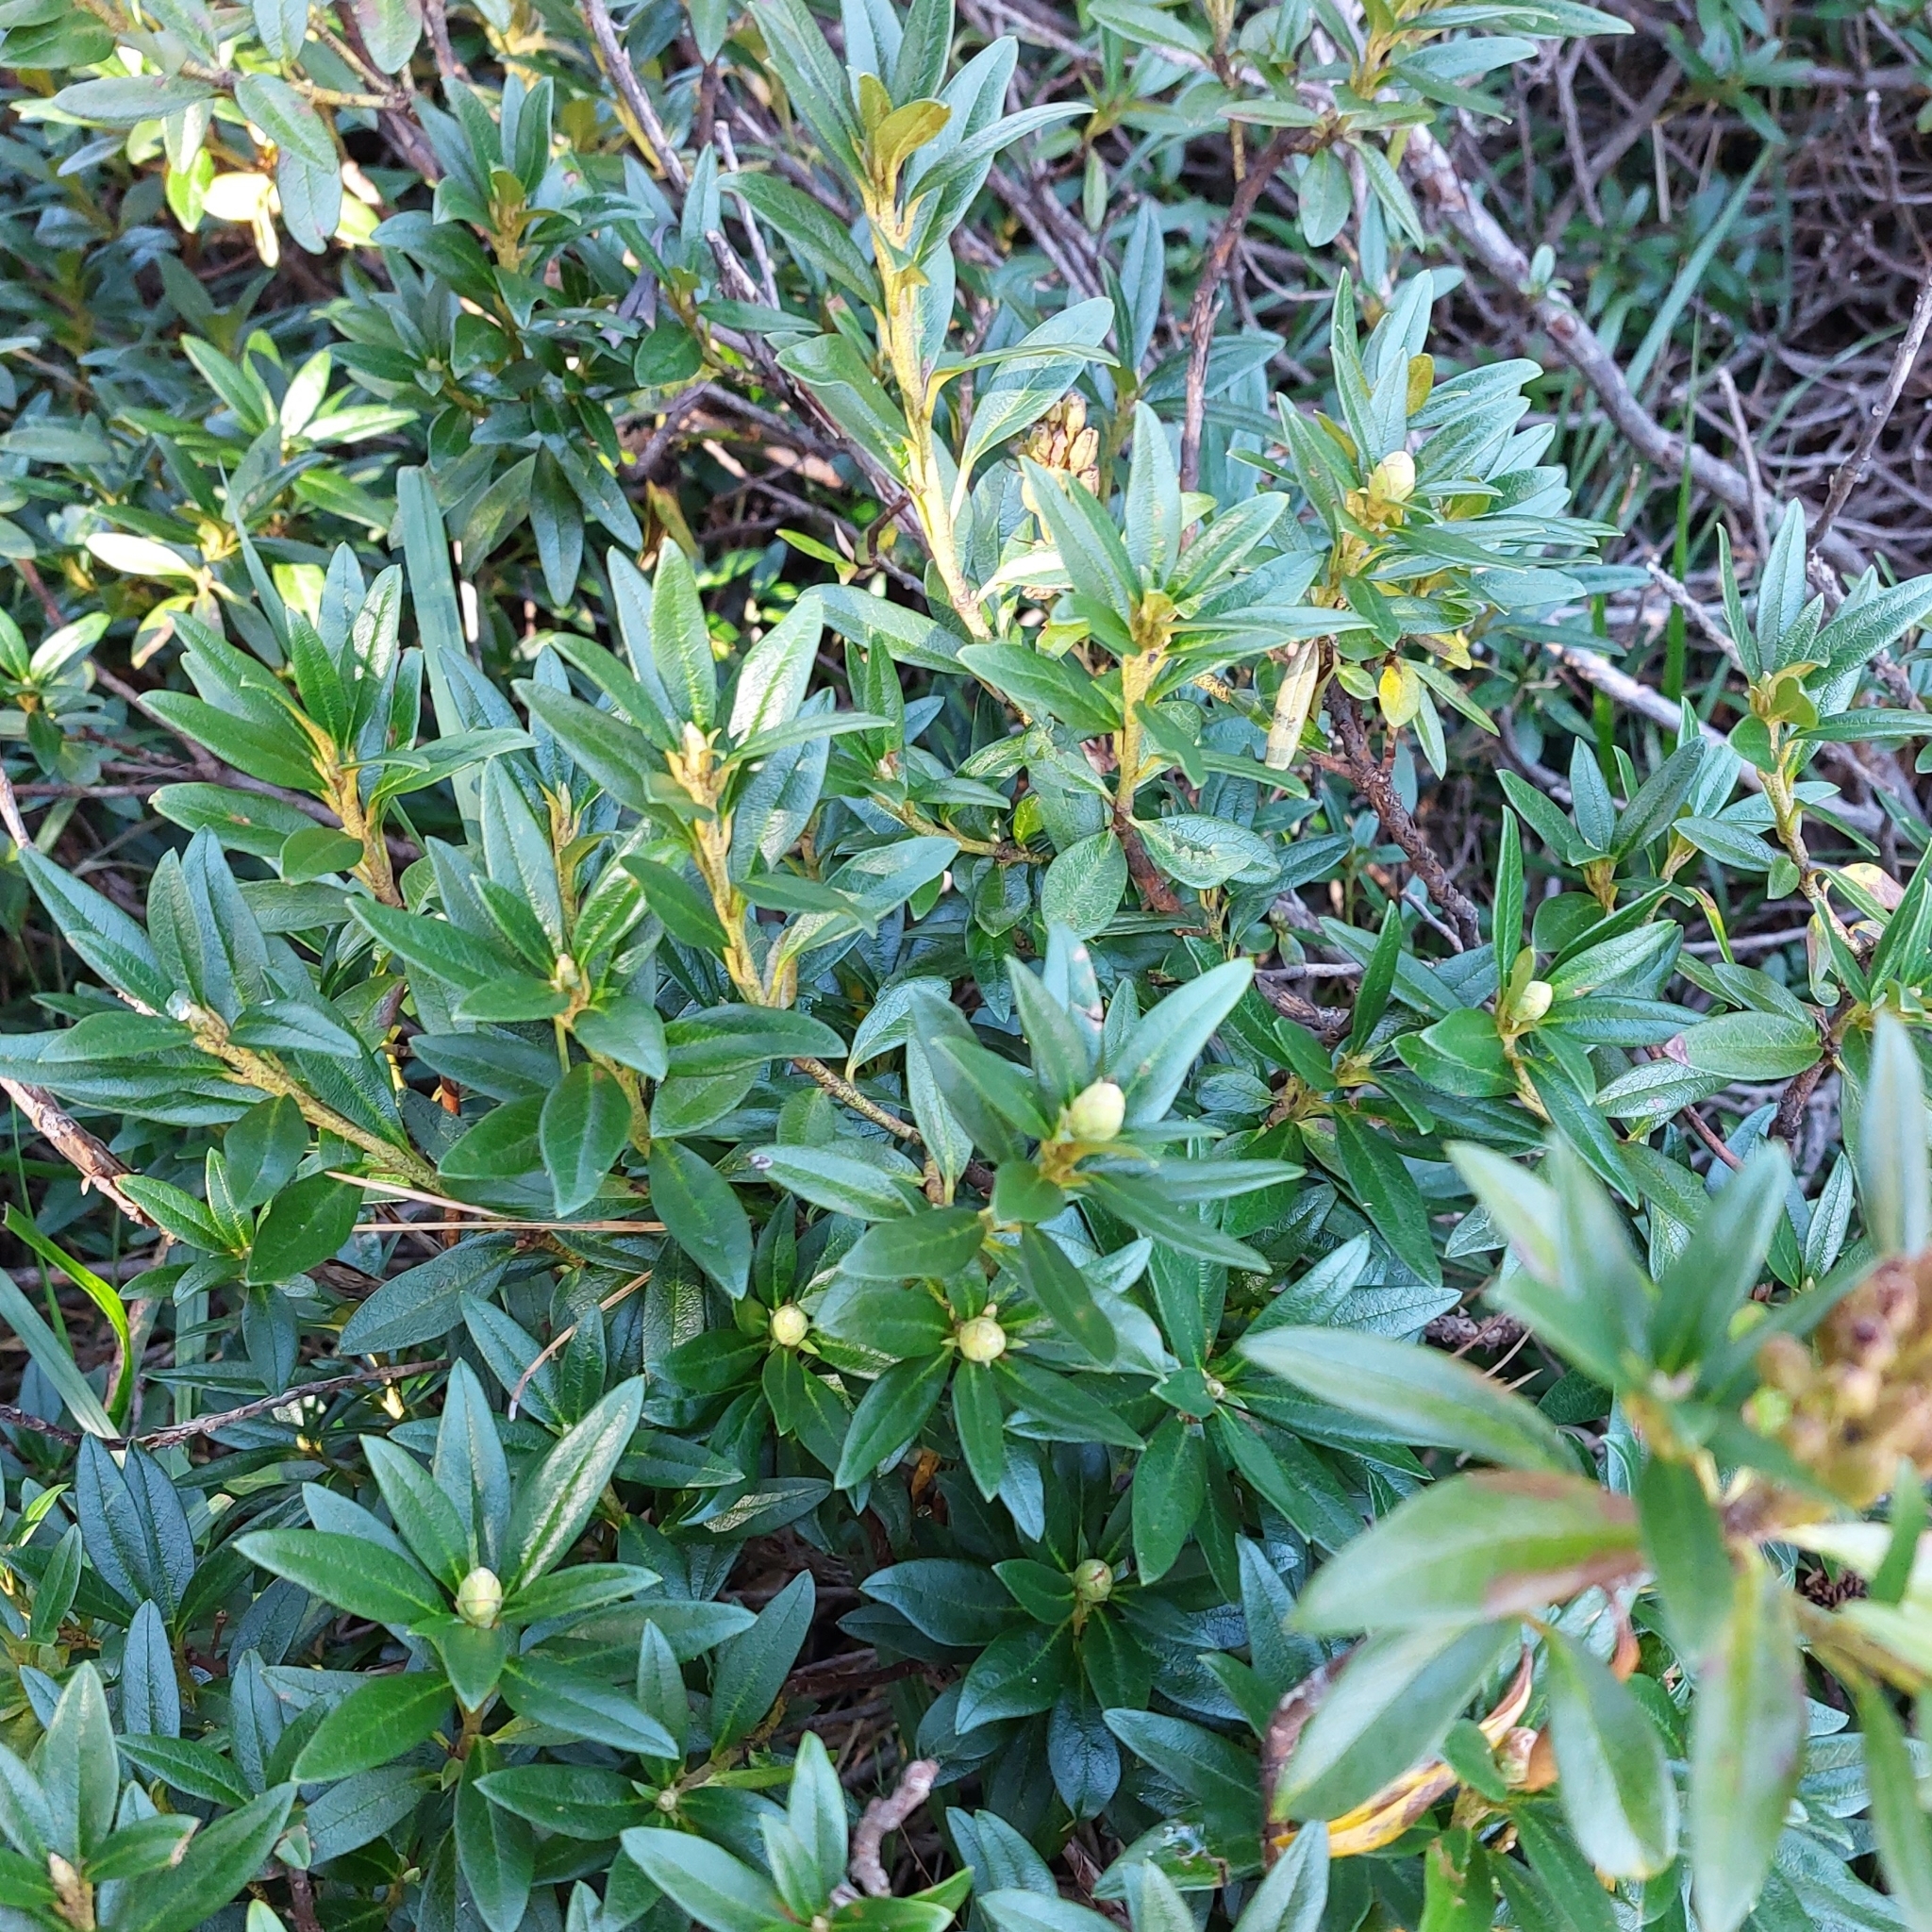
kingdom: Plantae
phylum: Tracheophyta
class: Magnoliopsida
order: Ericales
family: Ericaceae
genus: Rhododendron
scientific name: Rhododendron ferrugineum
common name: Alpenrose
